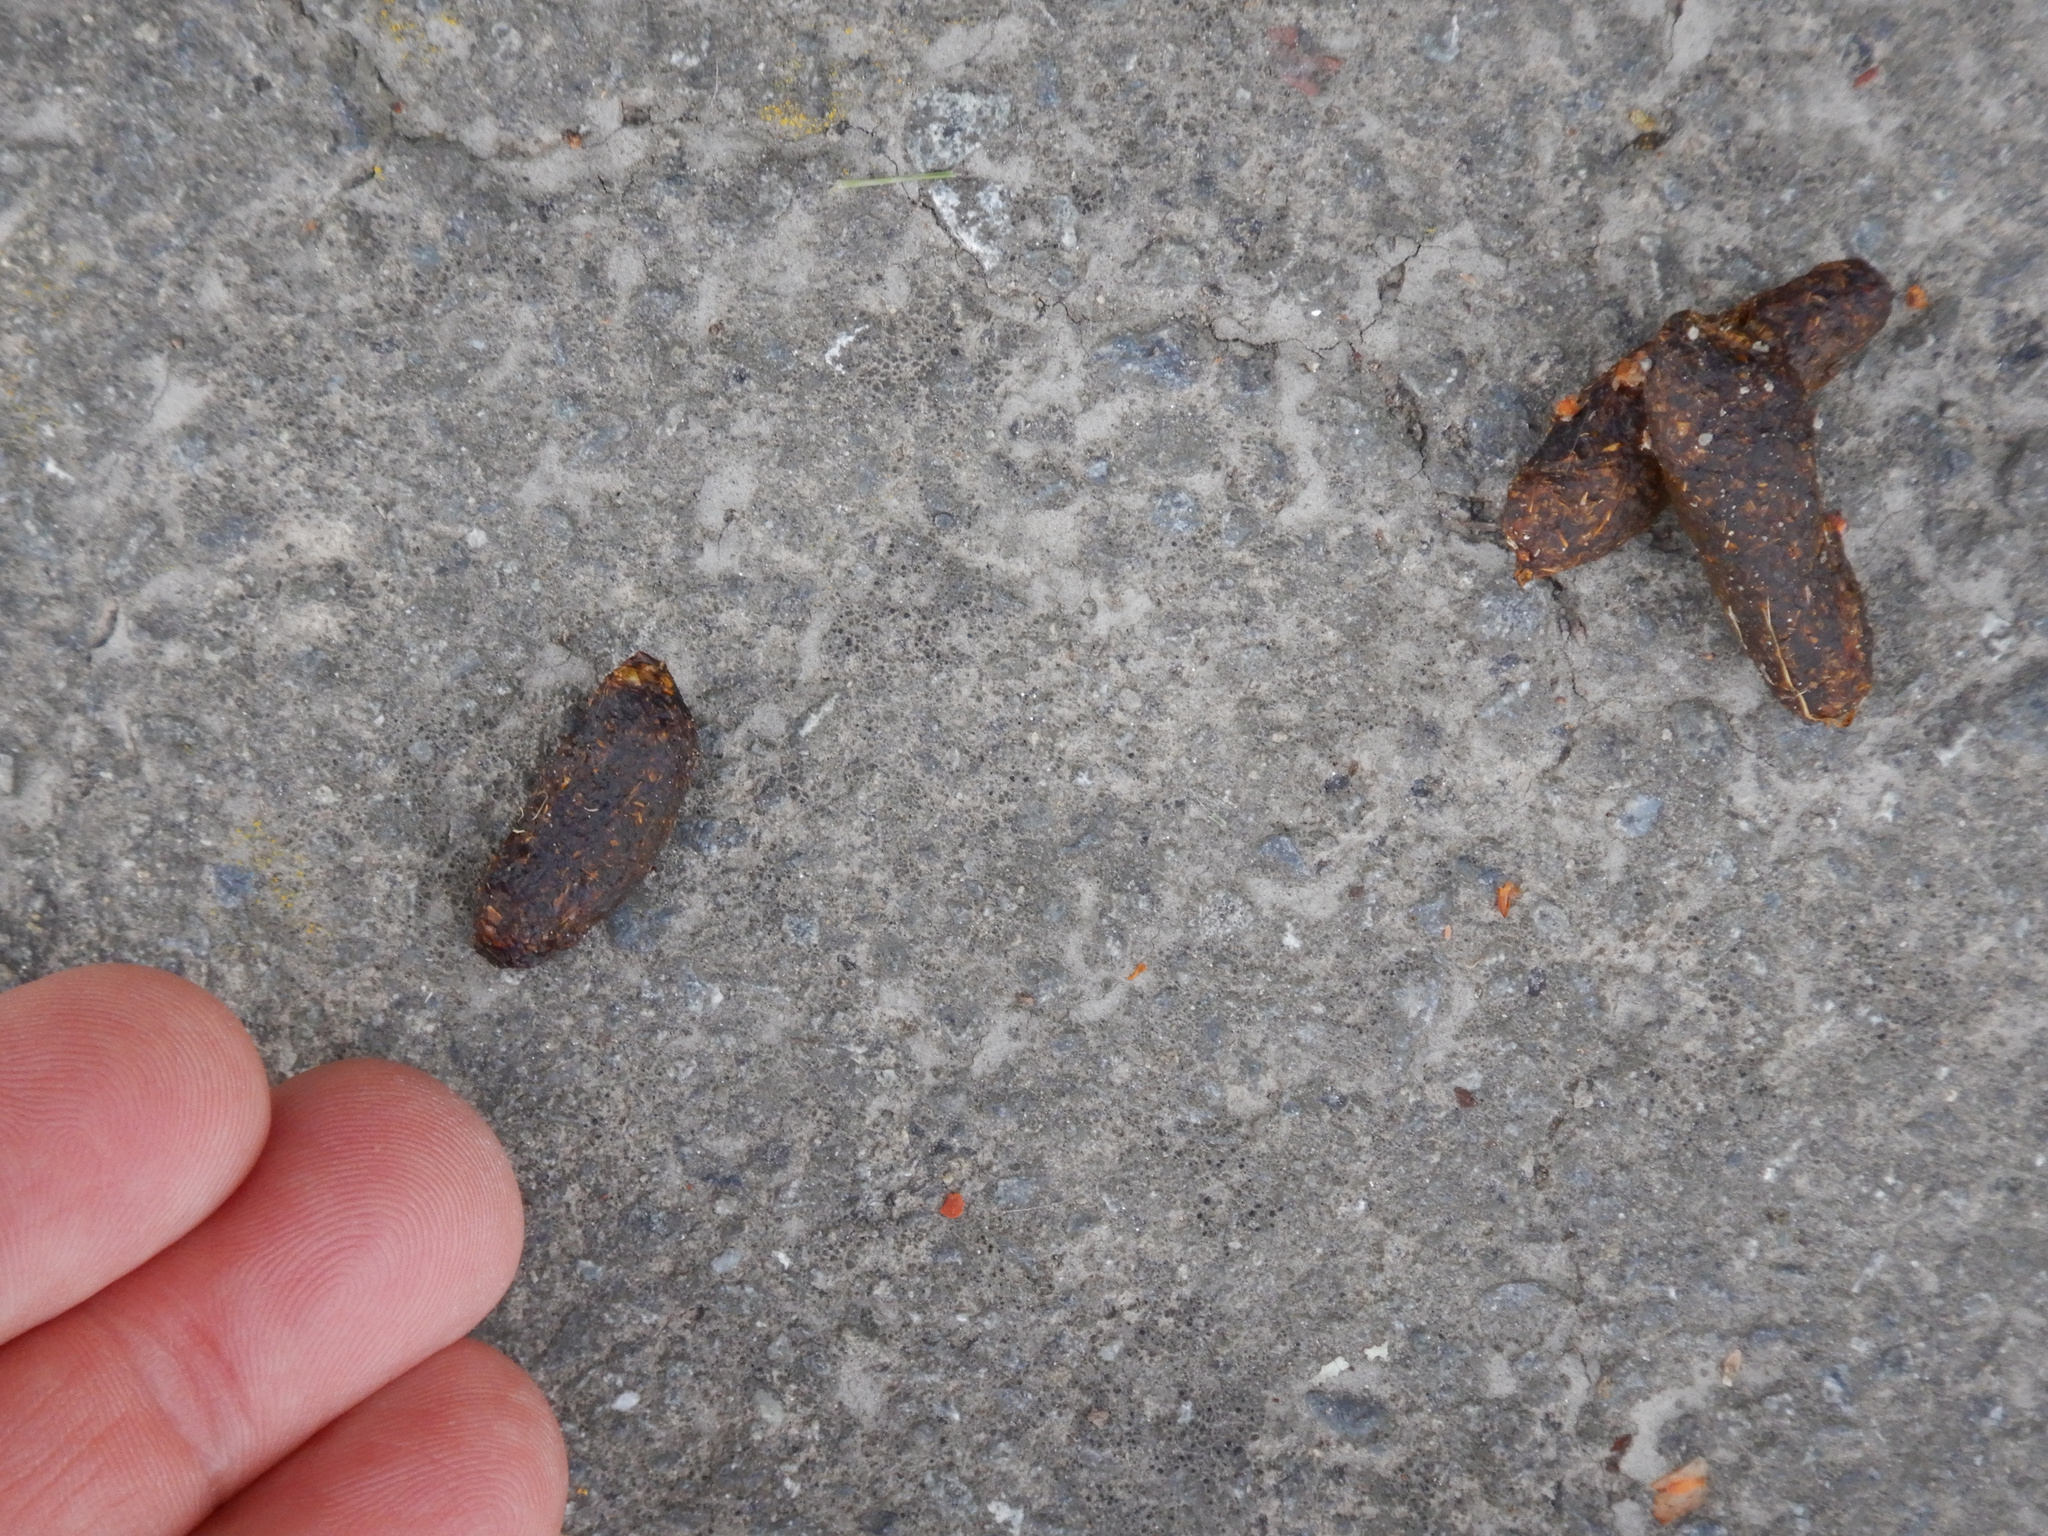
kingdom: Animalia
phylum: Chordata
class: Mammalia
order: Diprotodontia
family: Phalangeridae
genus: Trichosurus
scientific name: Trichosurus vulpecula
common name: Common brushtail
